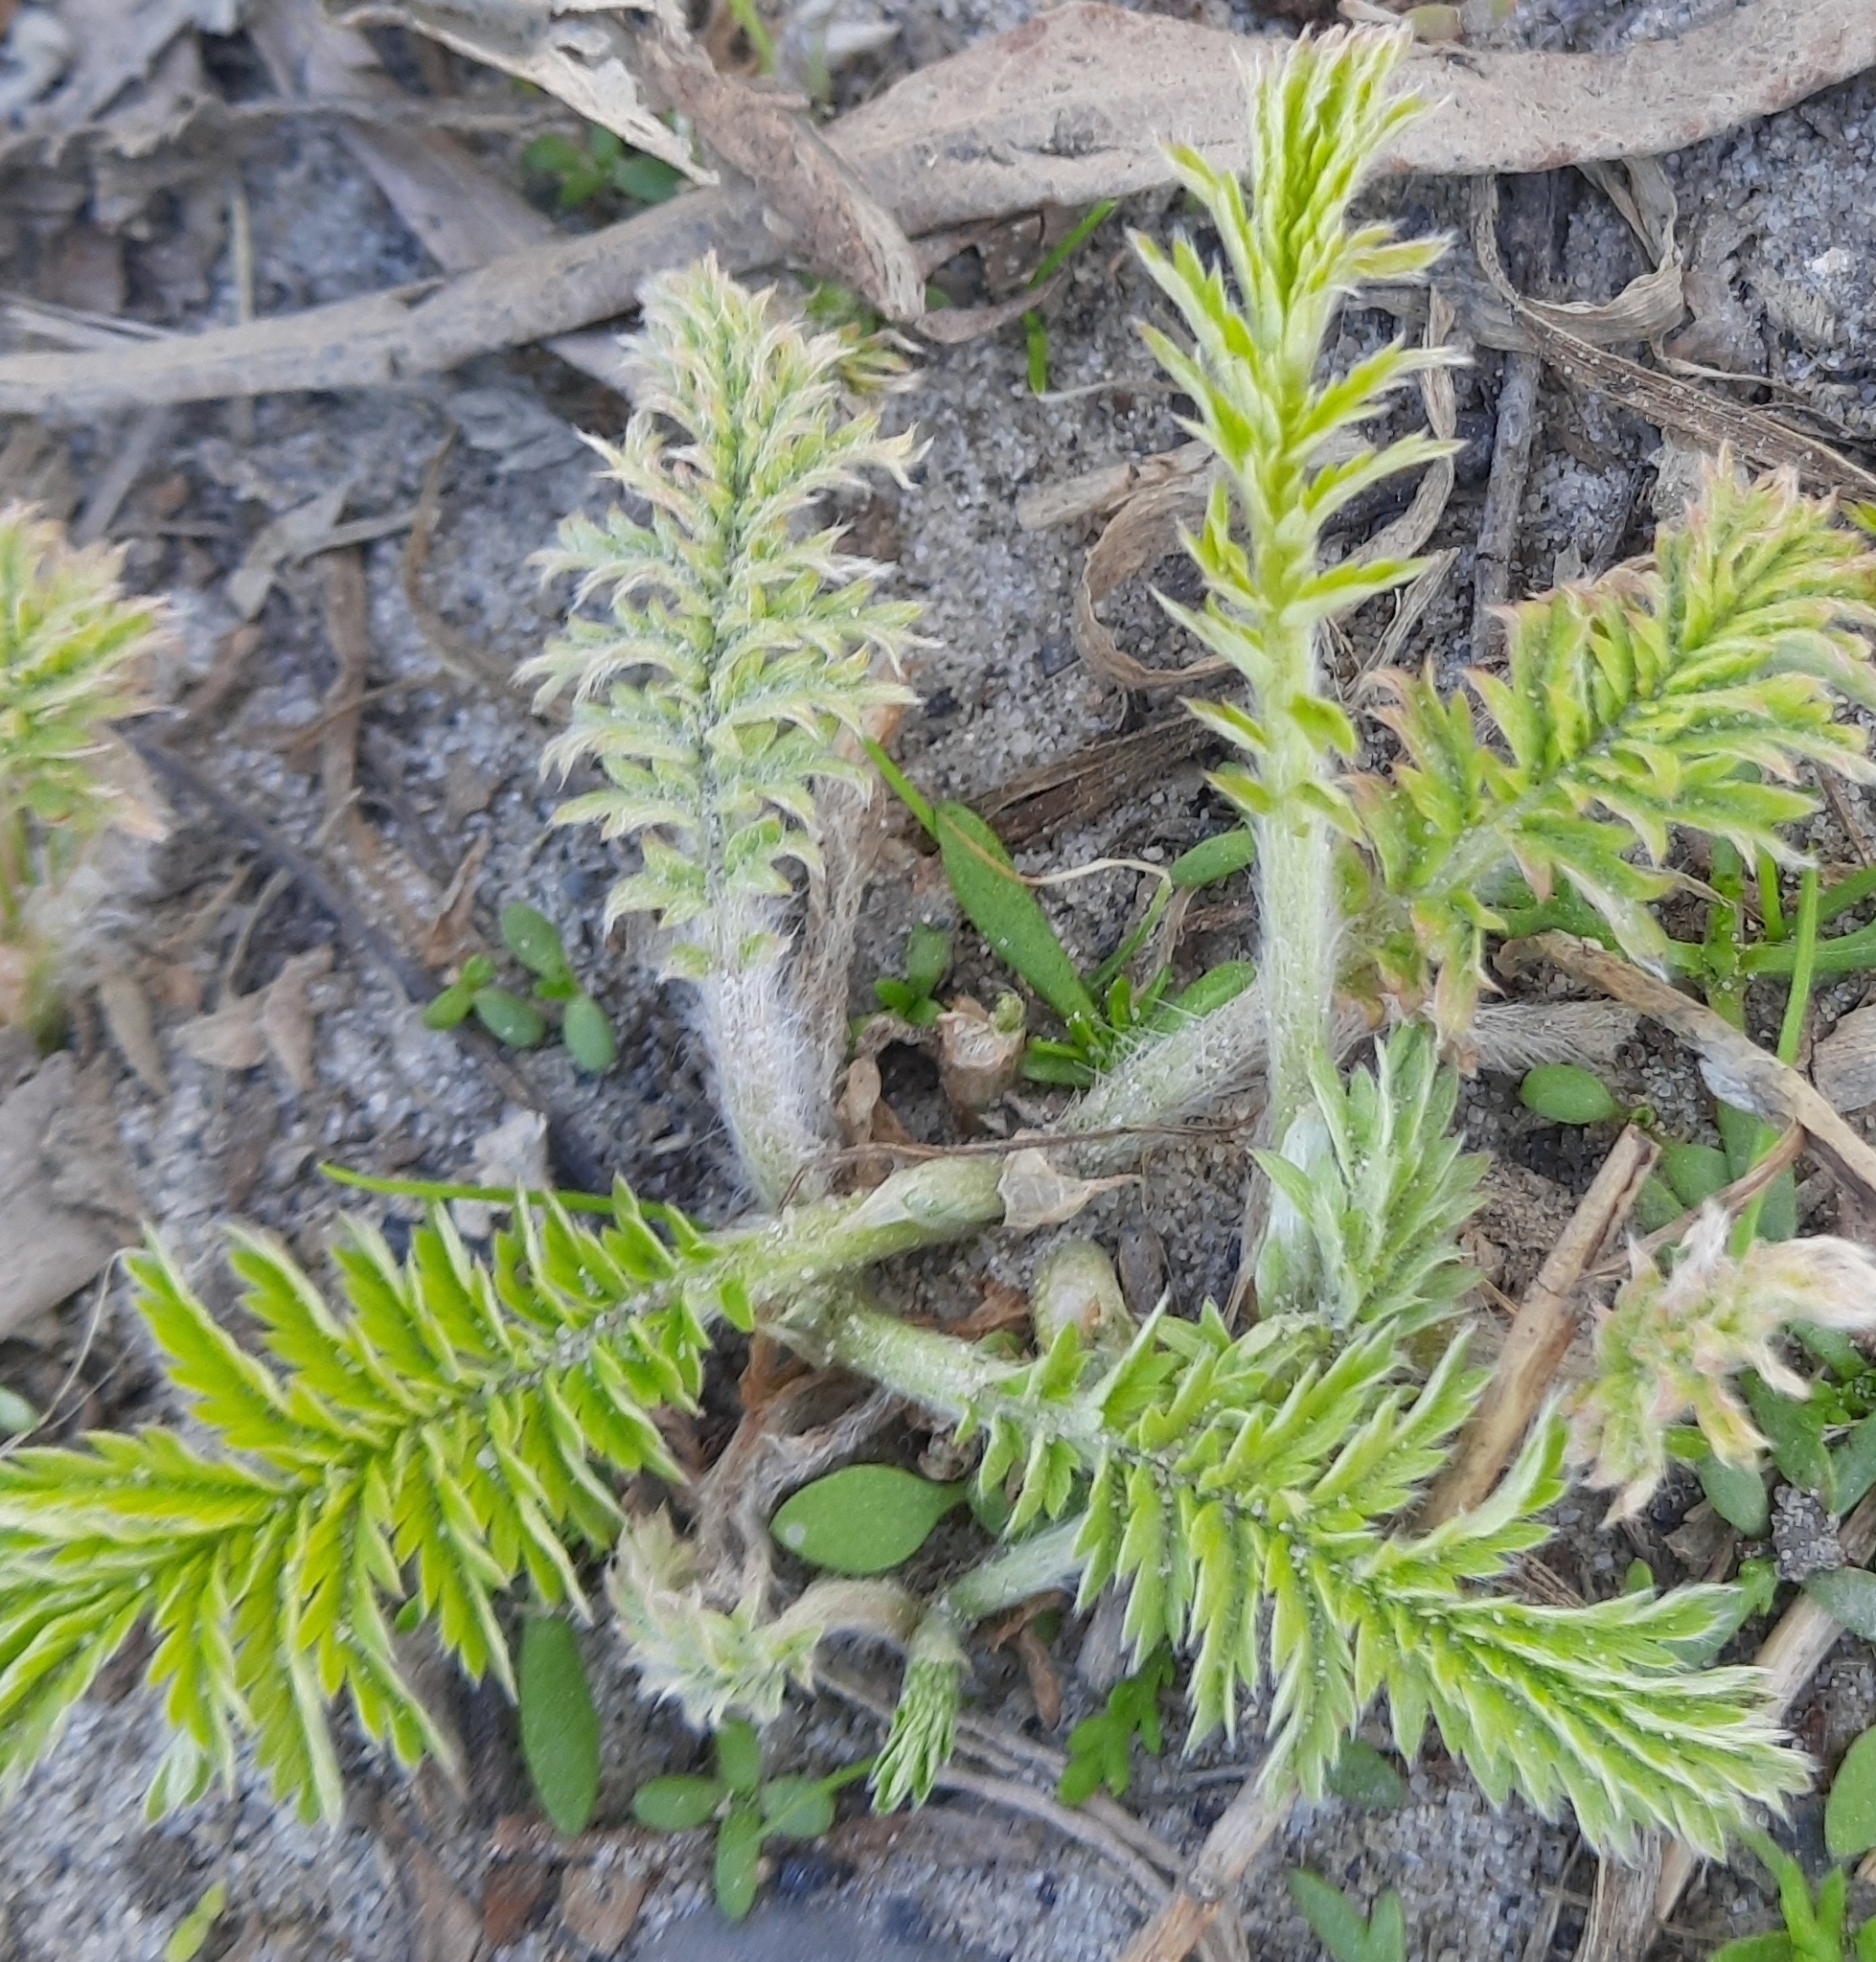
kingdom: Plantae
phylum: Tracheophyta
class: Magnoliopsida
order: Rosales
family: Rosaceae
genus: Argentina
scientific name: Argentina anserina
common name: Common silverweed
